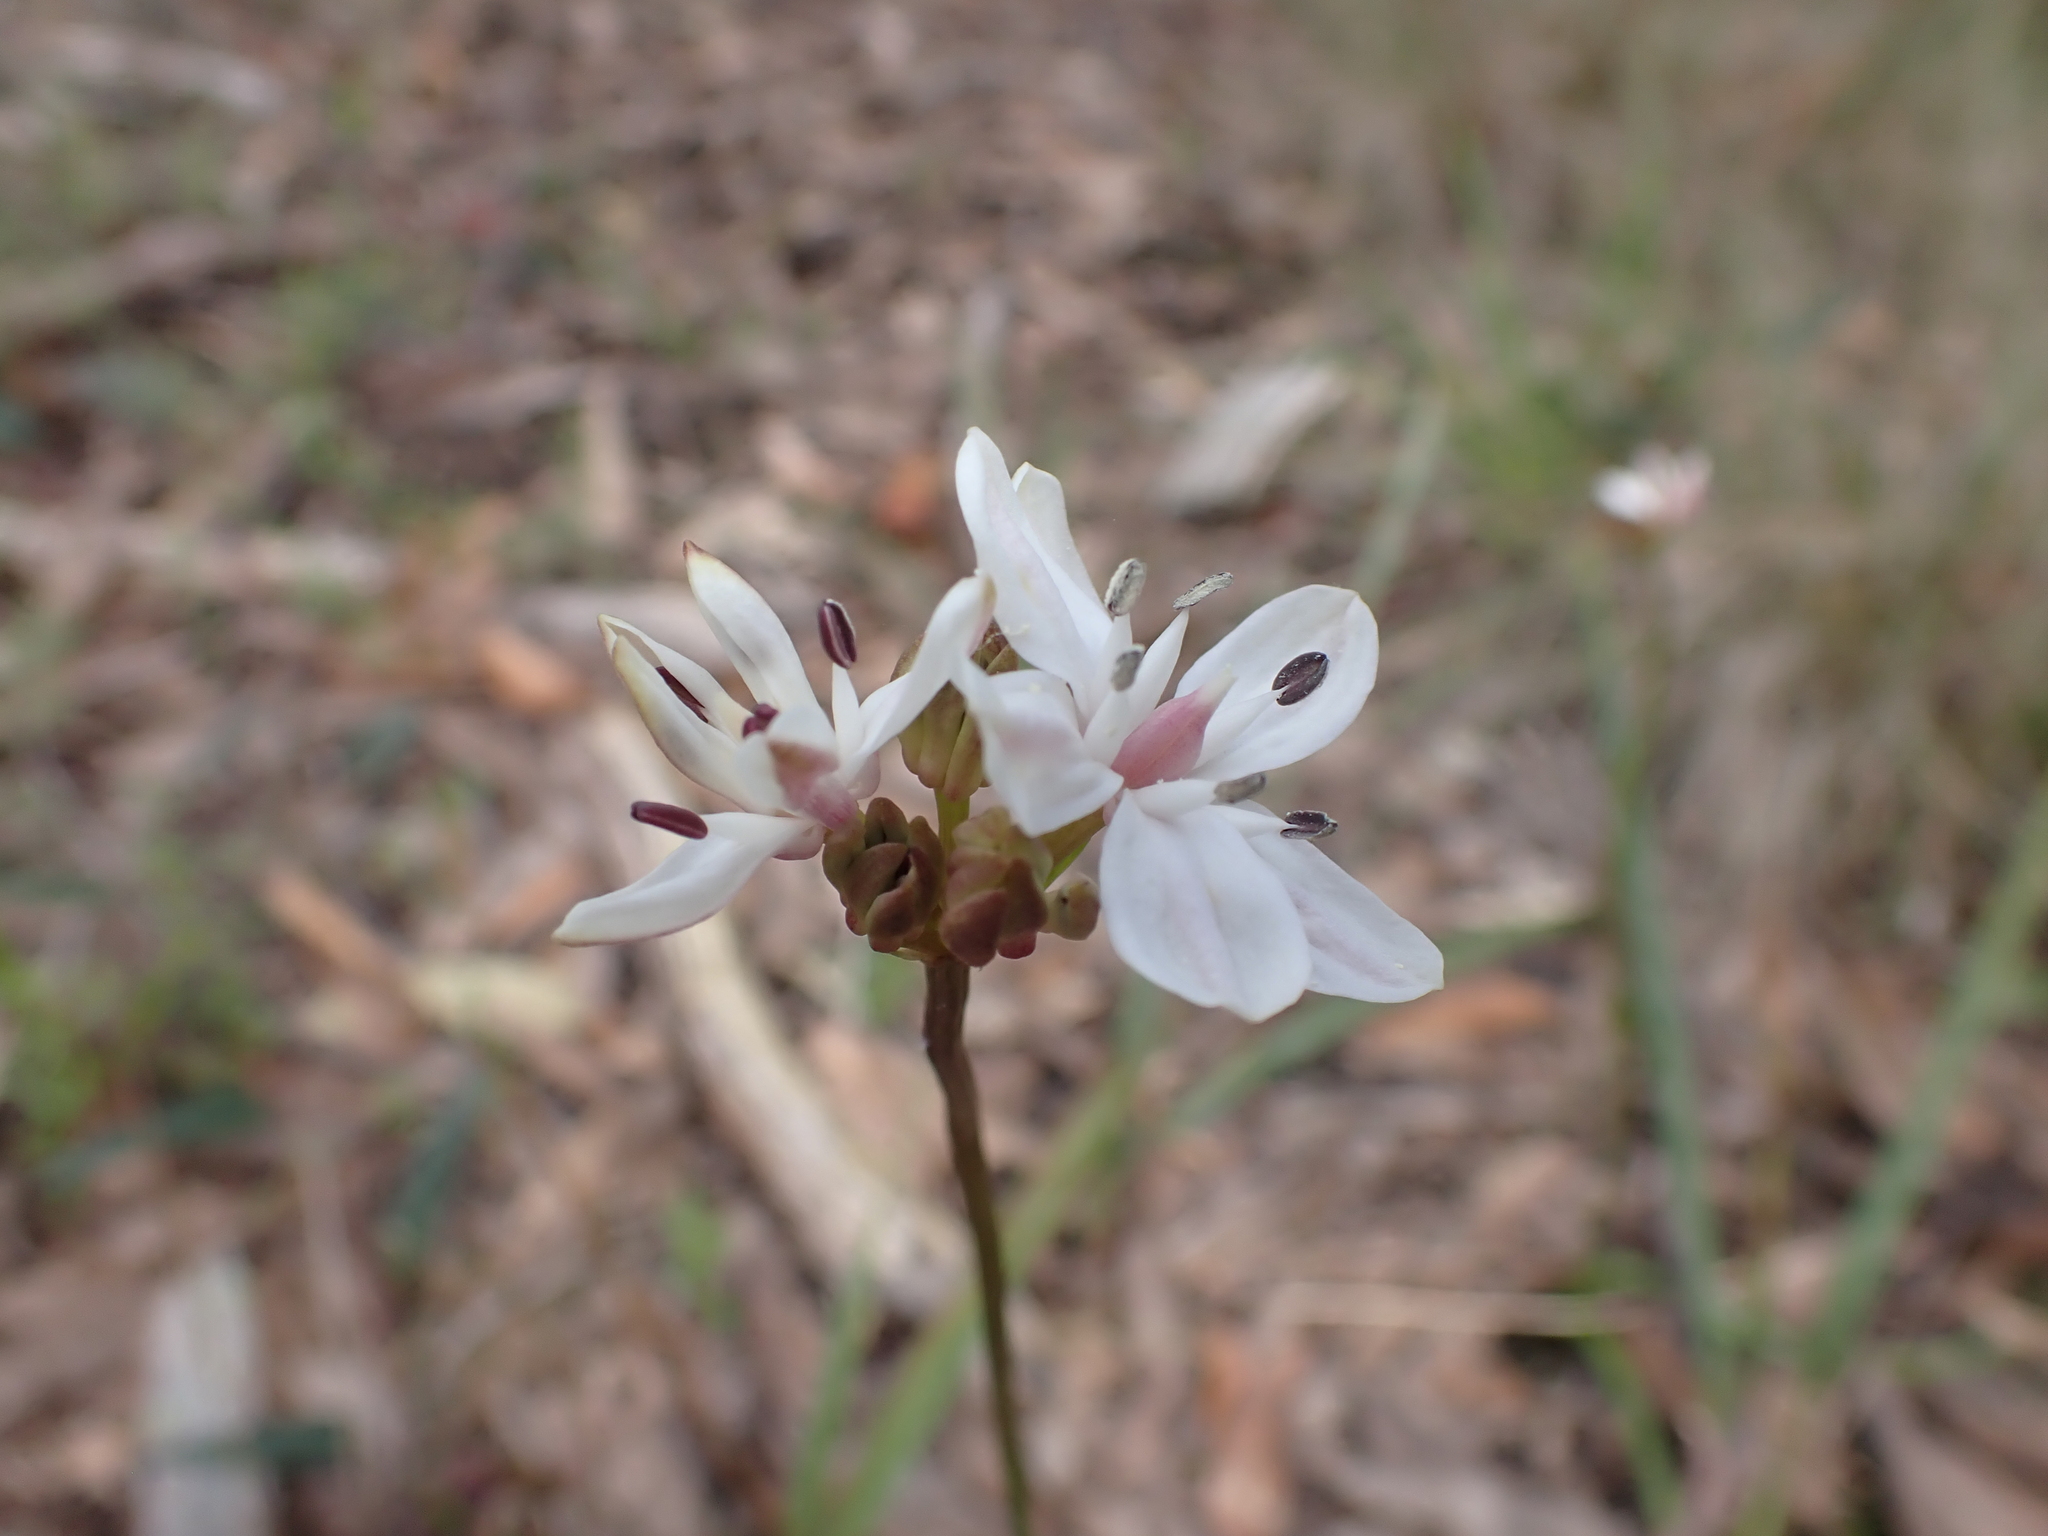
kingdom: Plantae
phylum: Tracheophyta
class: Liliopsida
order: Liliales
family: Colchicaceae
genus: Burchardia
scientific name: Burchardia umbellata
